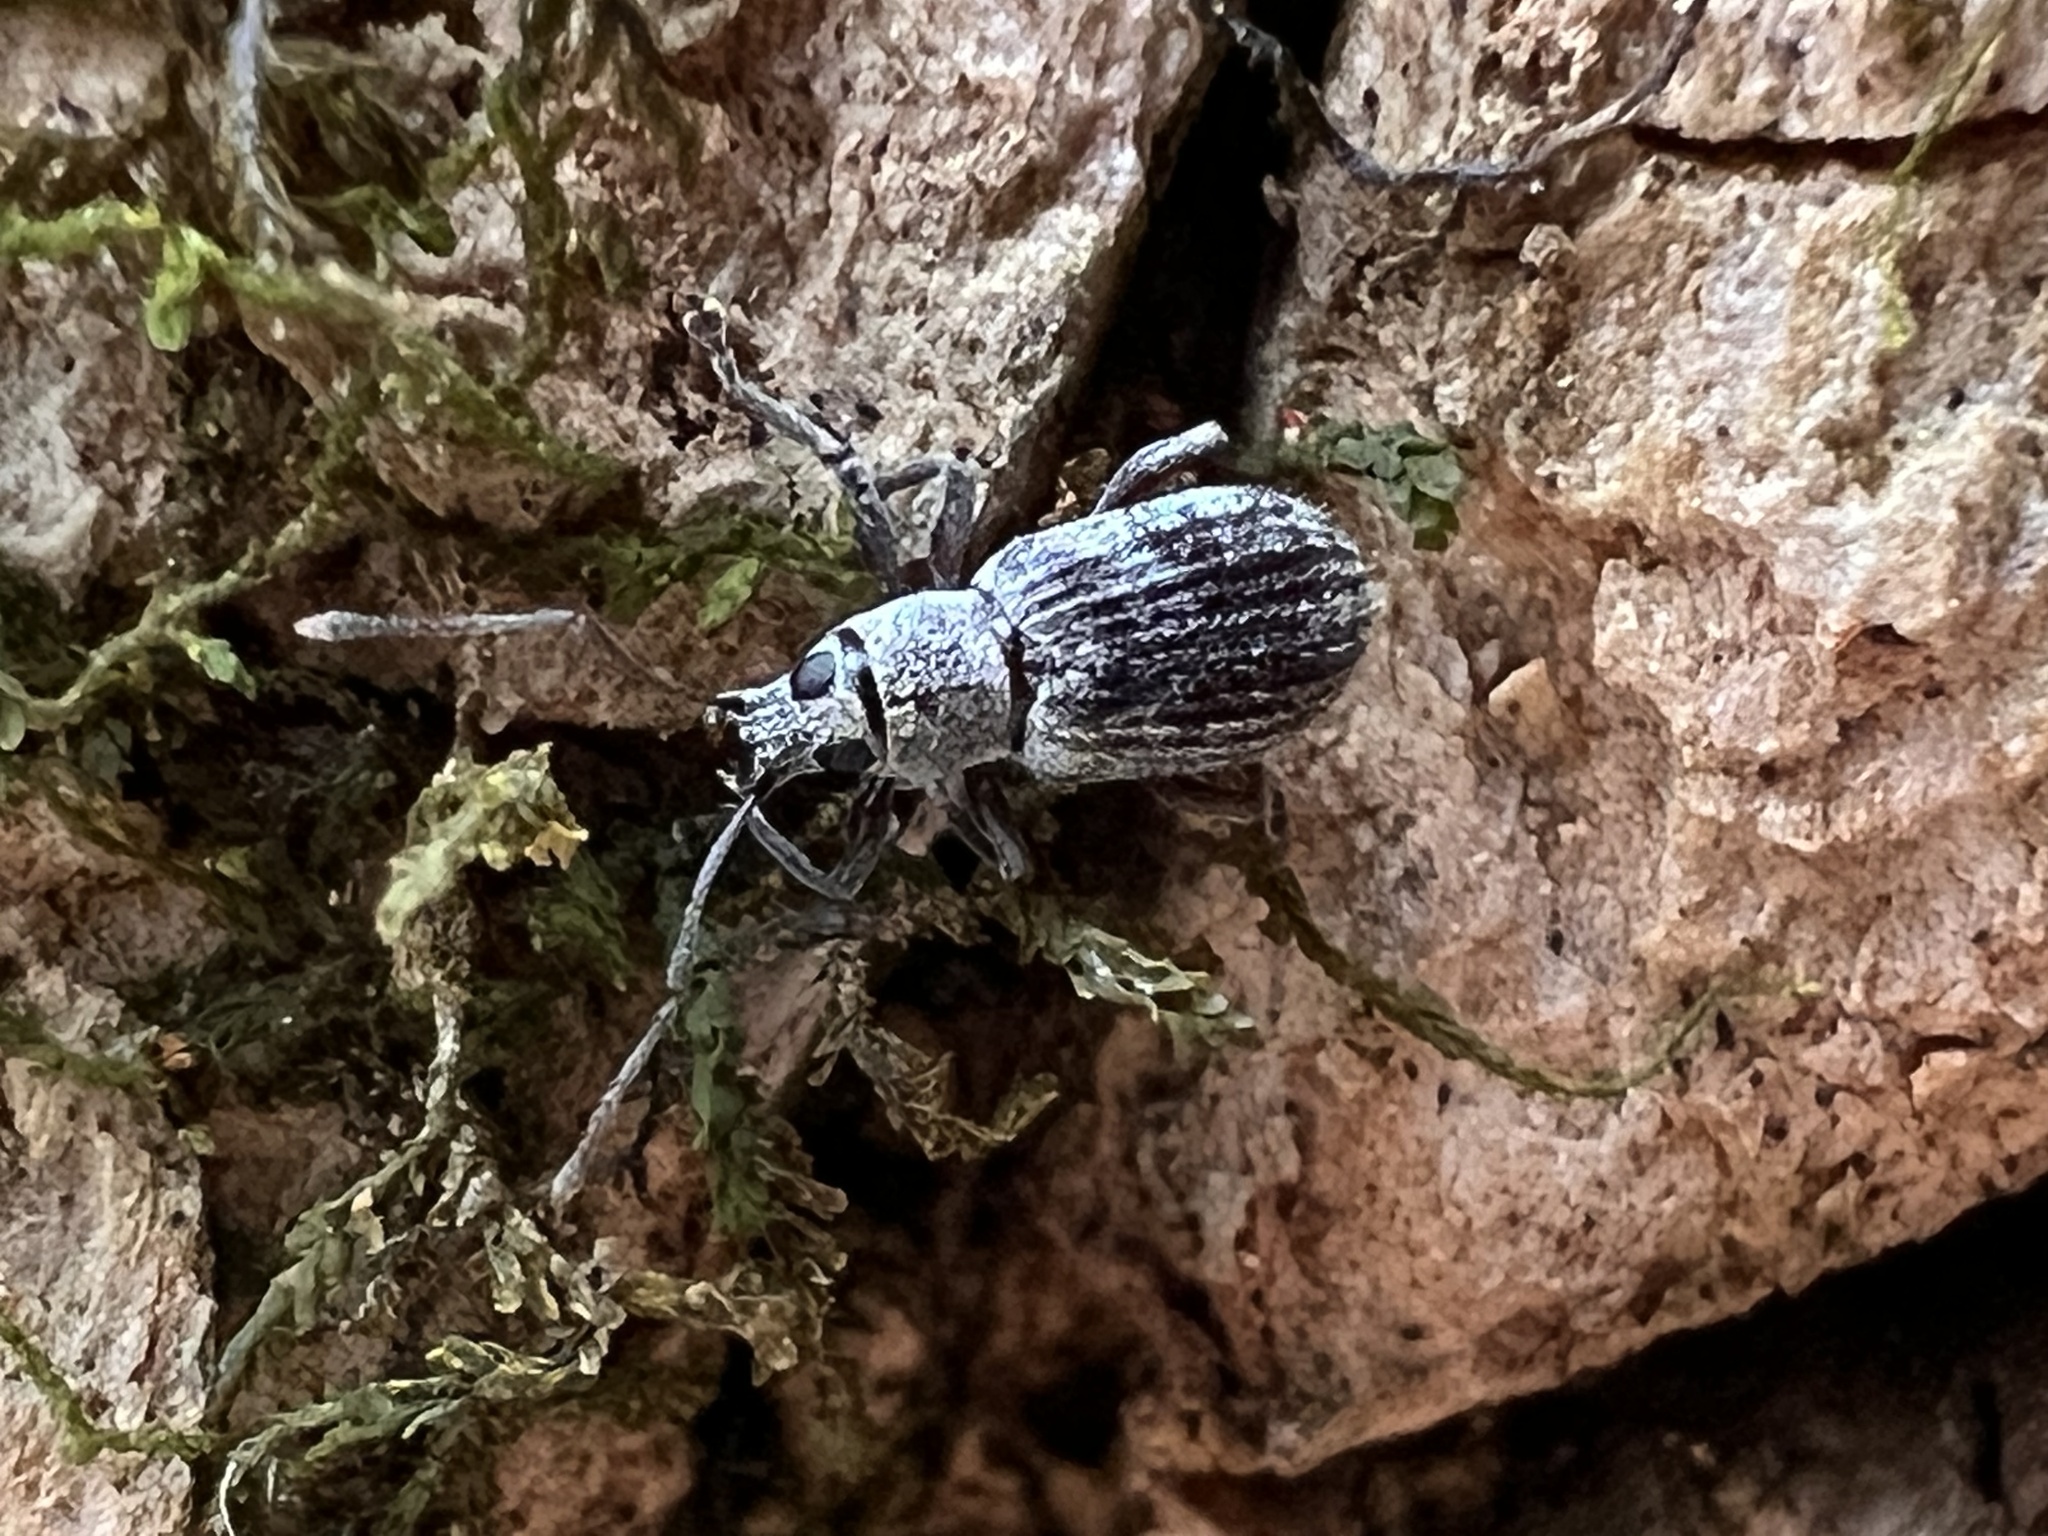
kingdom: Animalia
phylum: Arthropoda
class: Insecta
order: Coleoptera
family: Curculionidae
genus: Cyrtepistomus
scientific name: Cyrtepistomus castaneus
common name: Weevil
